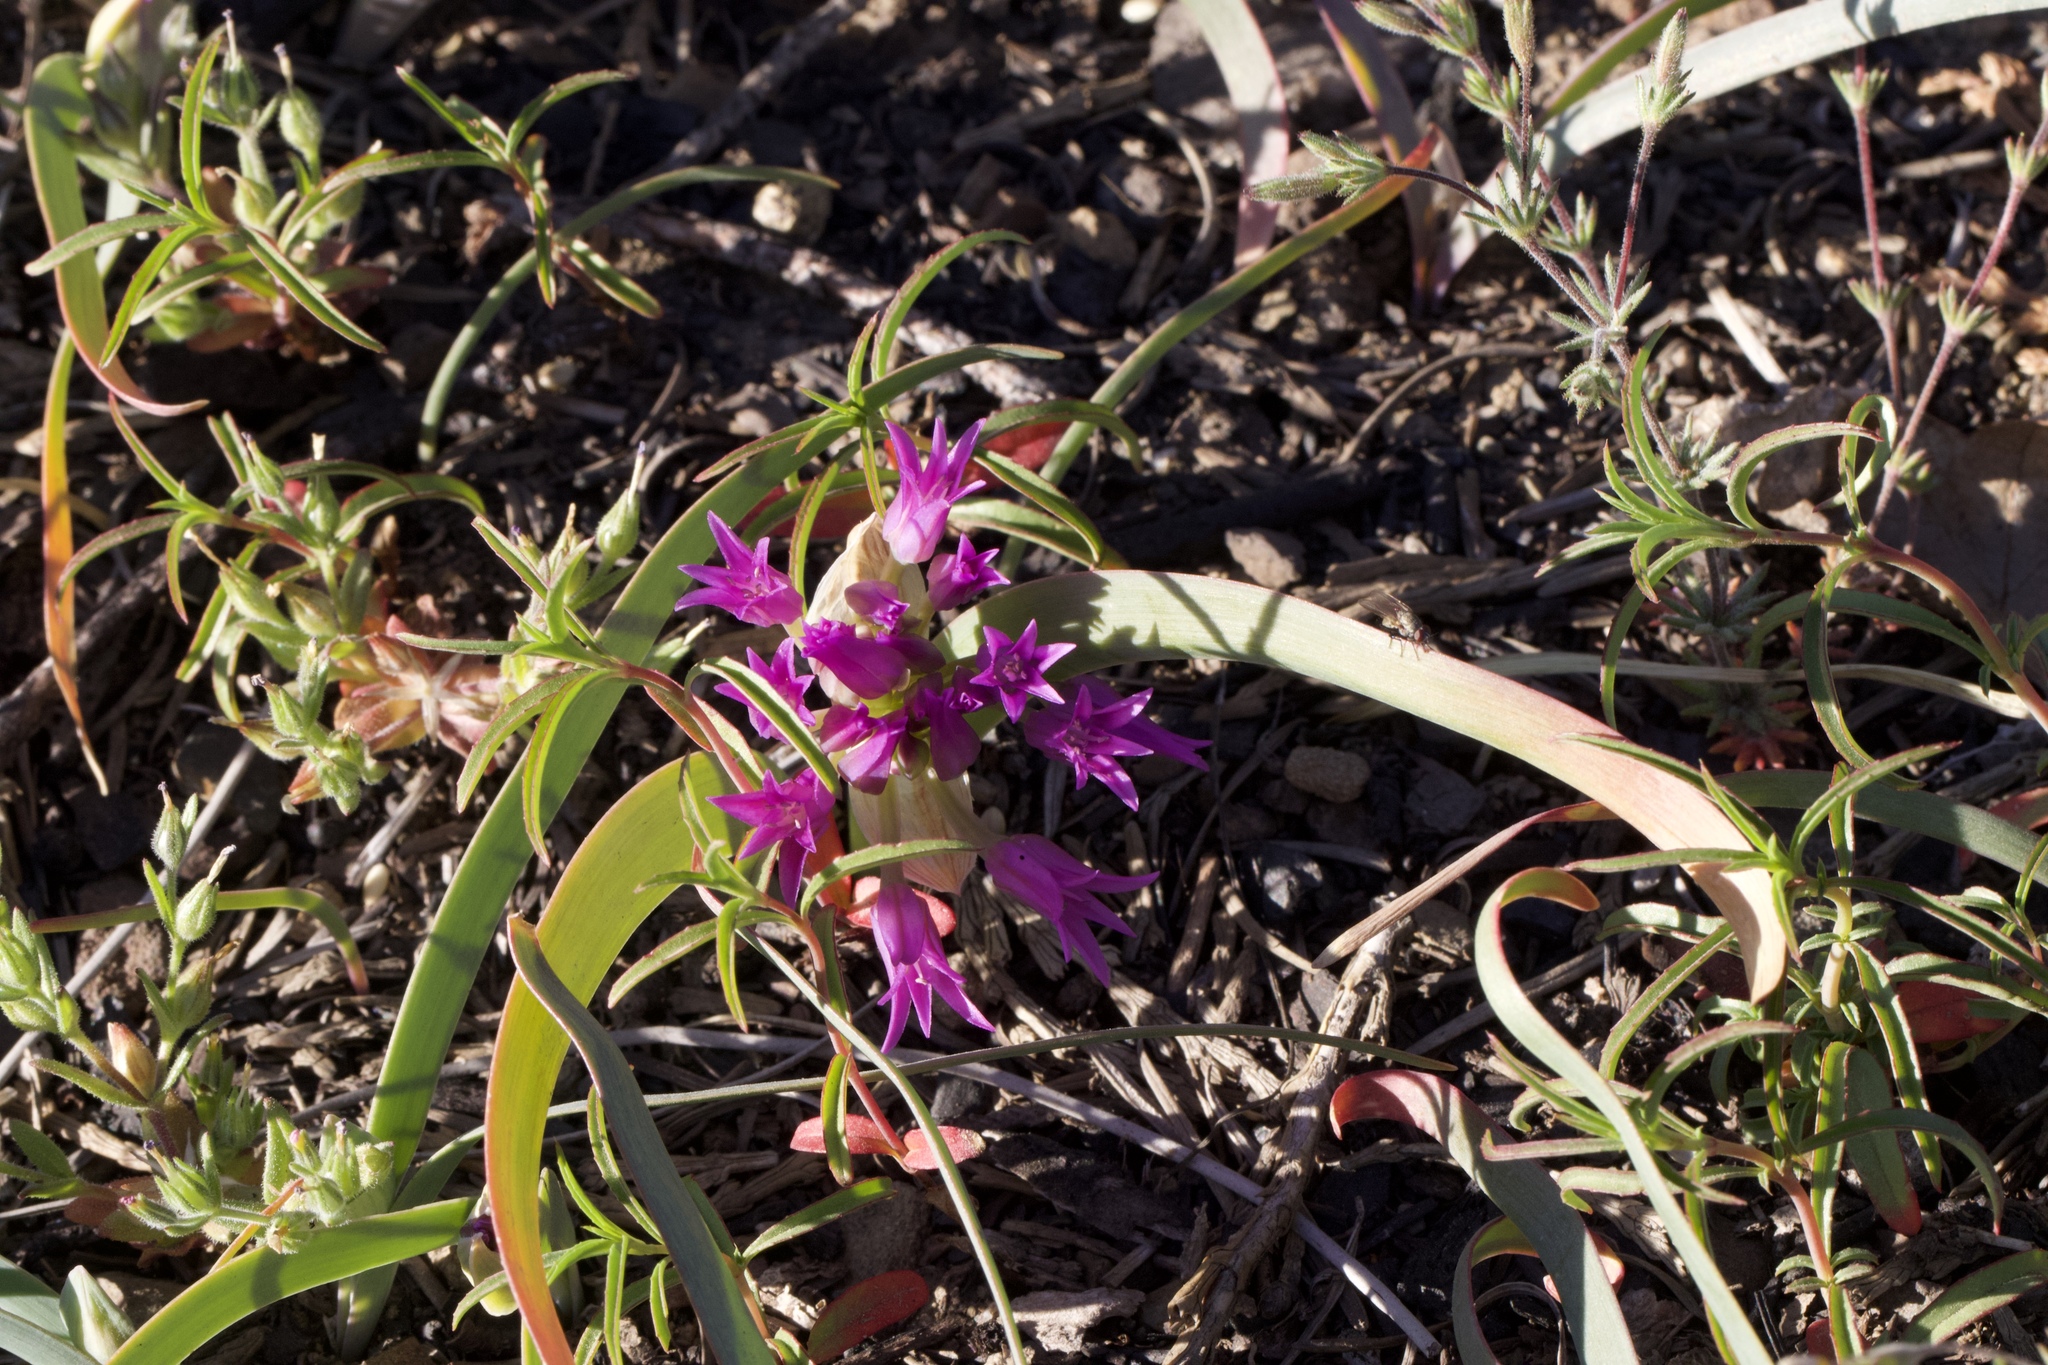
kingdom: Plantae
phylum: Tracheophyta
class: Liliopsida
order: Asparagales
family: Amaryllidaceae
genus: Allium
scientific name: Allium falcifolium
